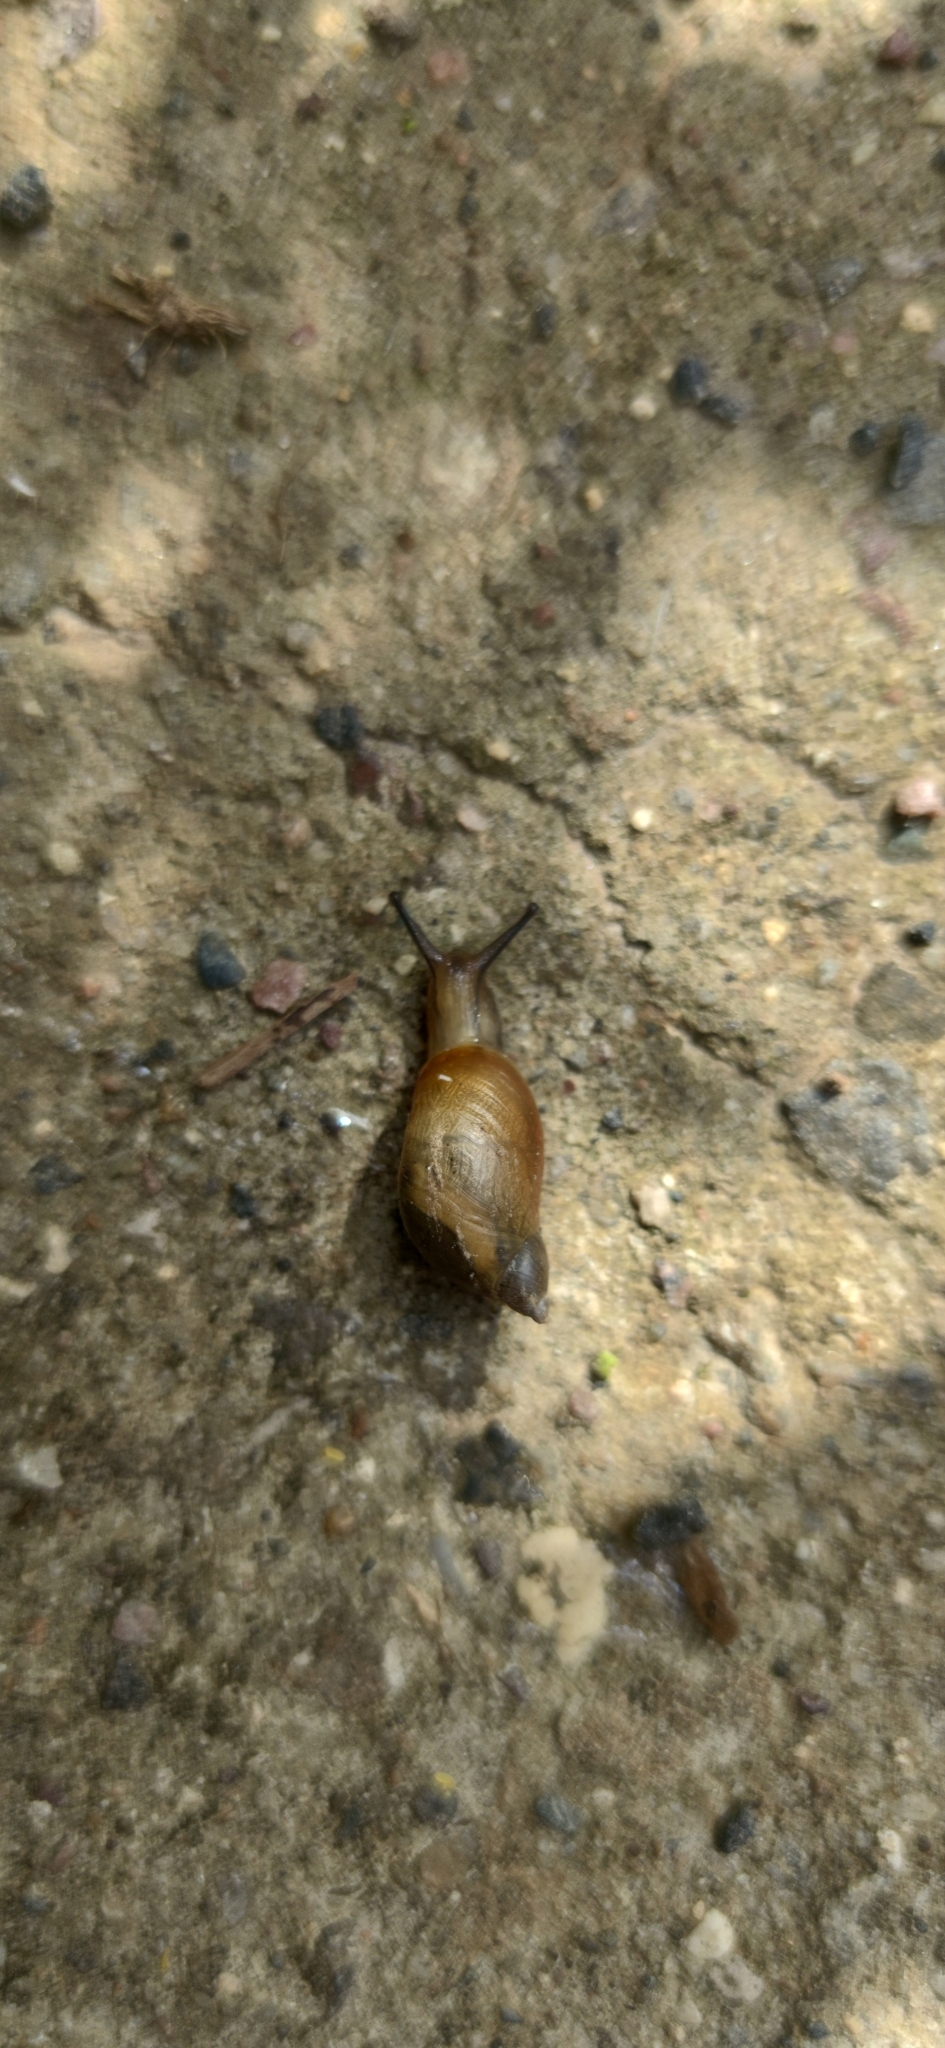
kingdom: Animalia
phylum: Mollusca
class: Gastropoda
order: Stylommatophora
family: Succineidae
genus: Succinea
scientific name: Succinea putris
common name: European ambersnail
